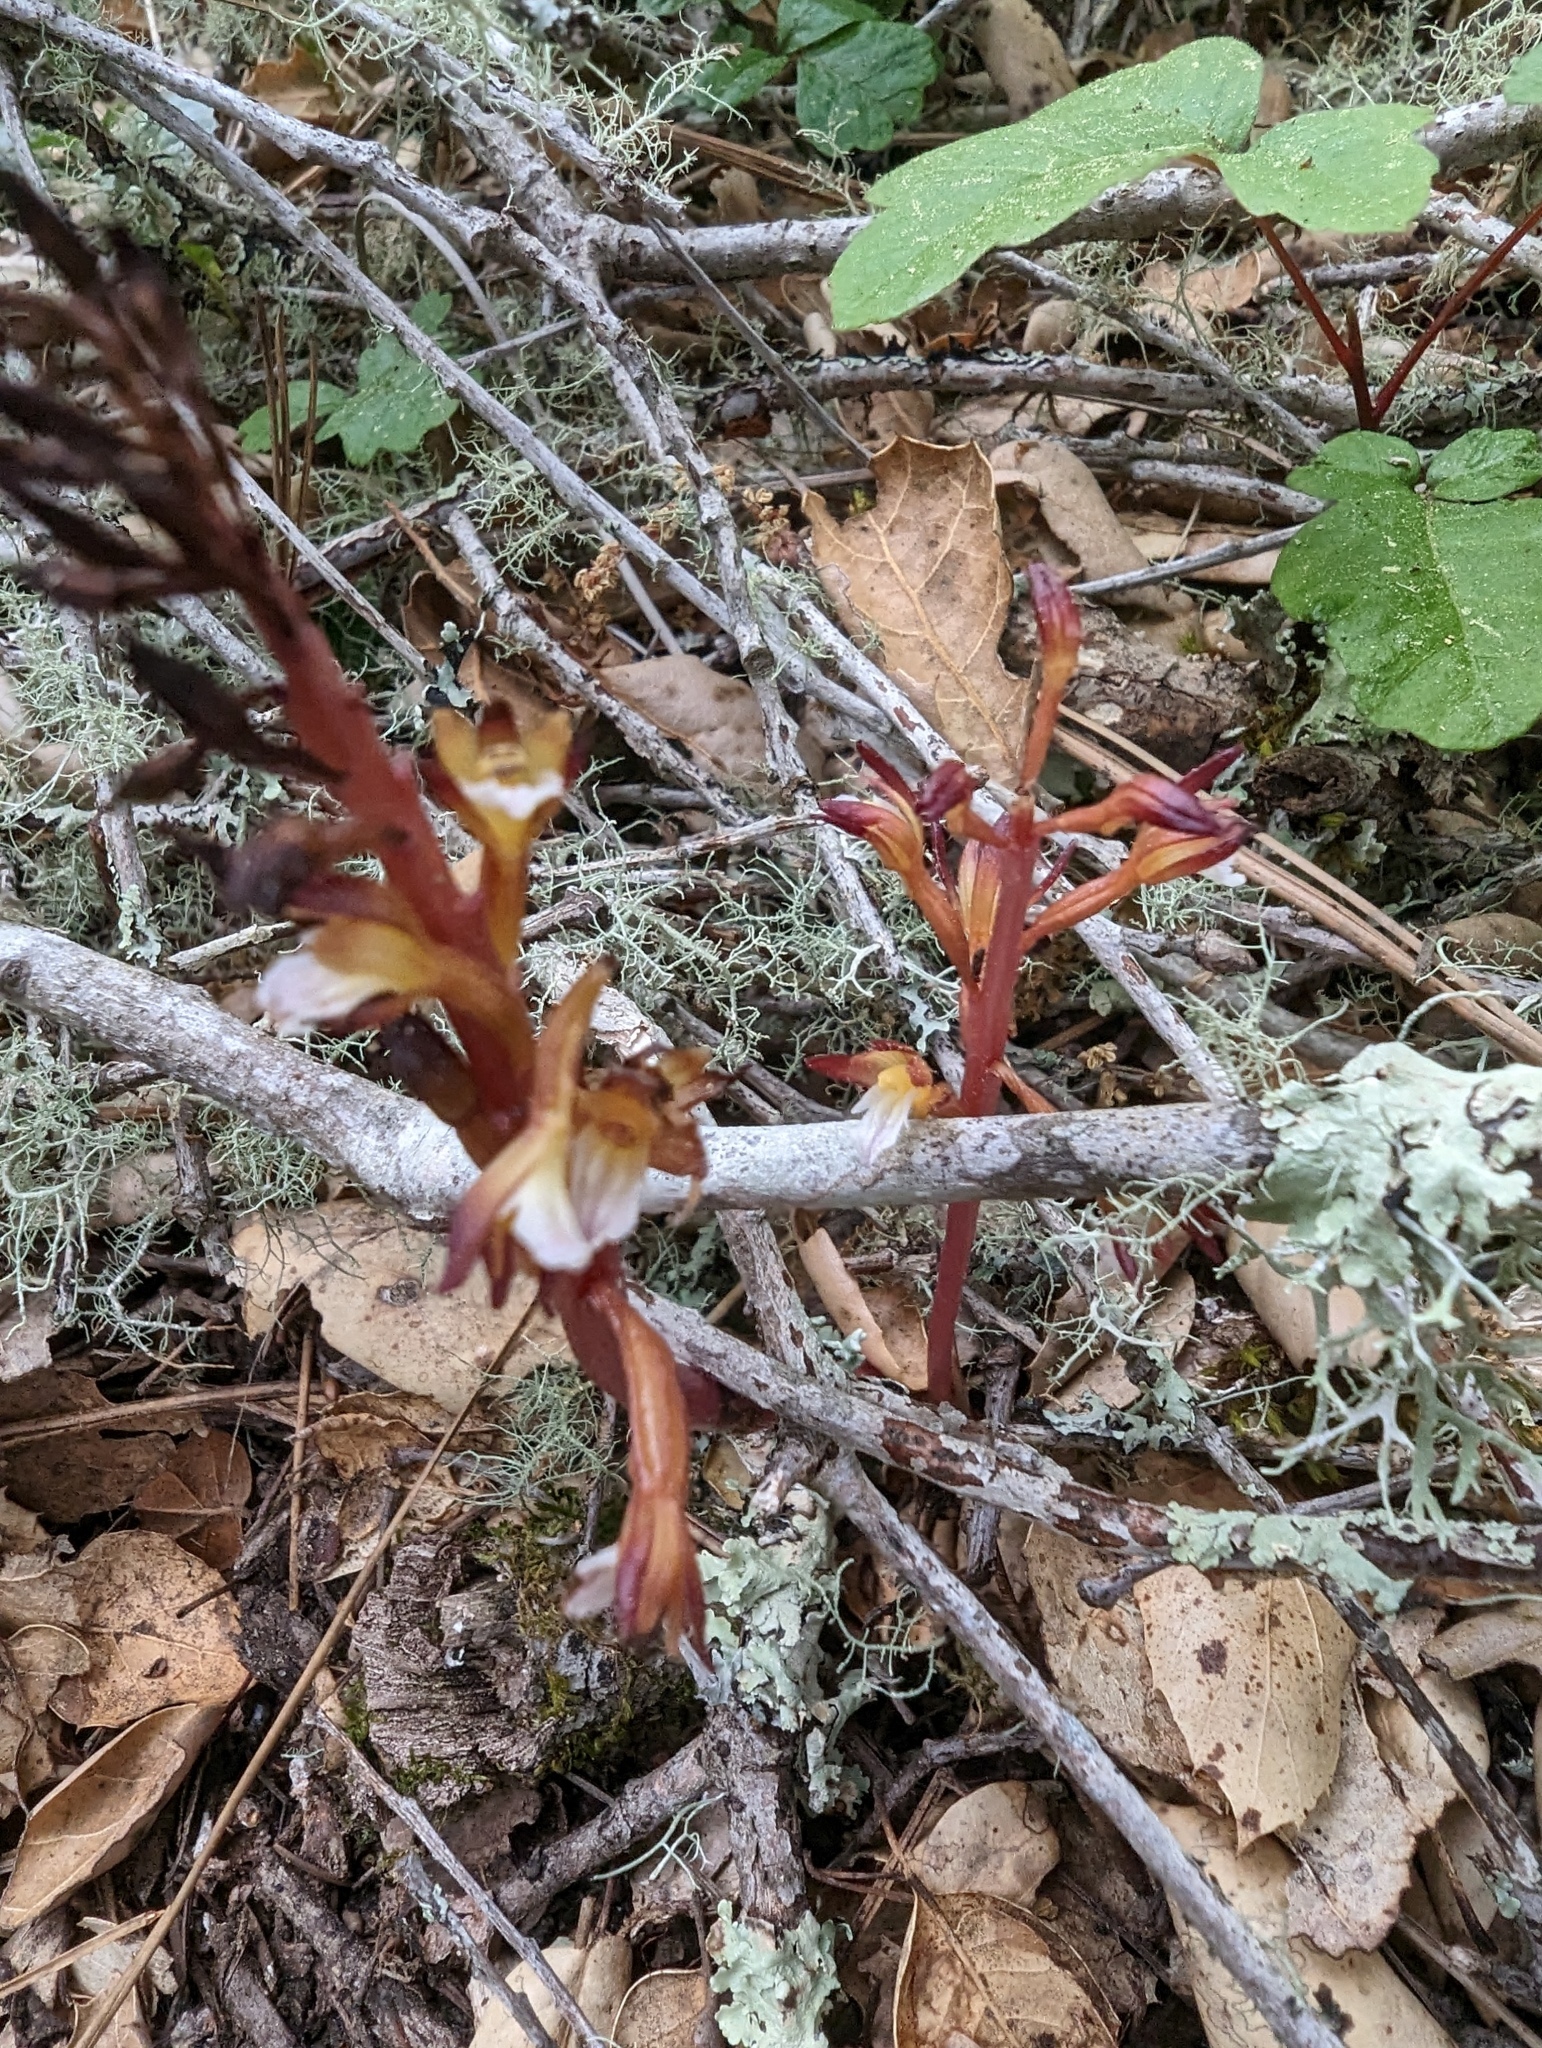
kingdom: Plantae
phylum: Tracheophyta
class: Liliopsida
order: Asparagales
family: Orchidaceae
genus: Corallorhiza
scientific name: Corallorhiza maculata
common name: Spotted coralroot
